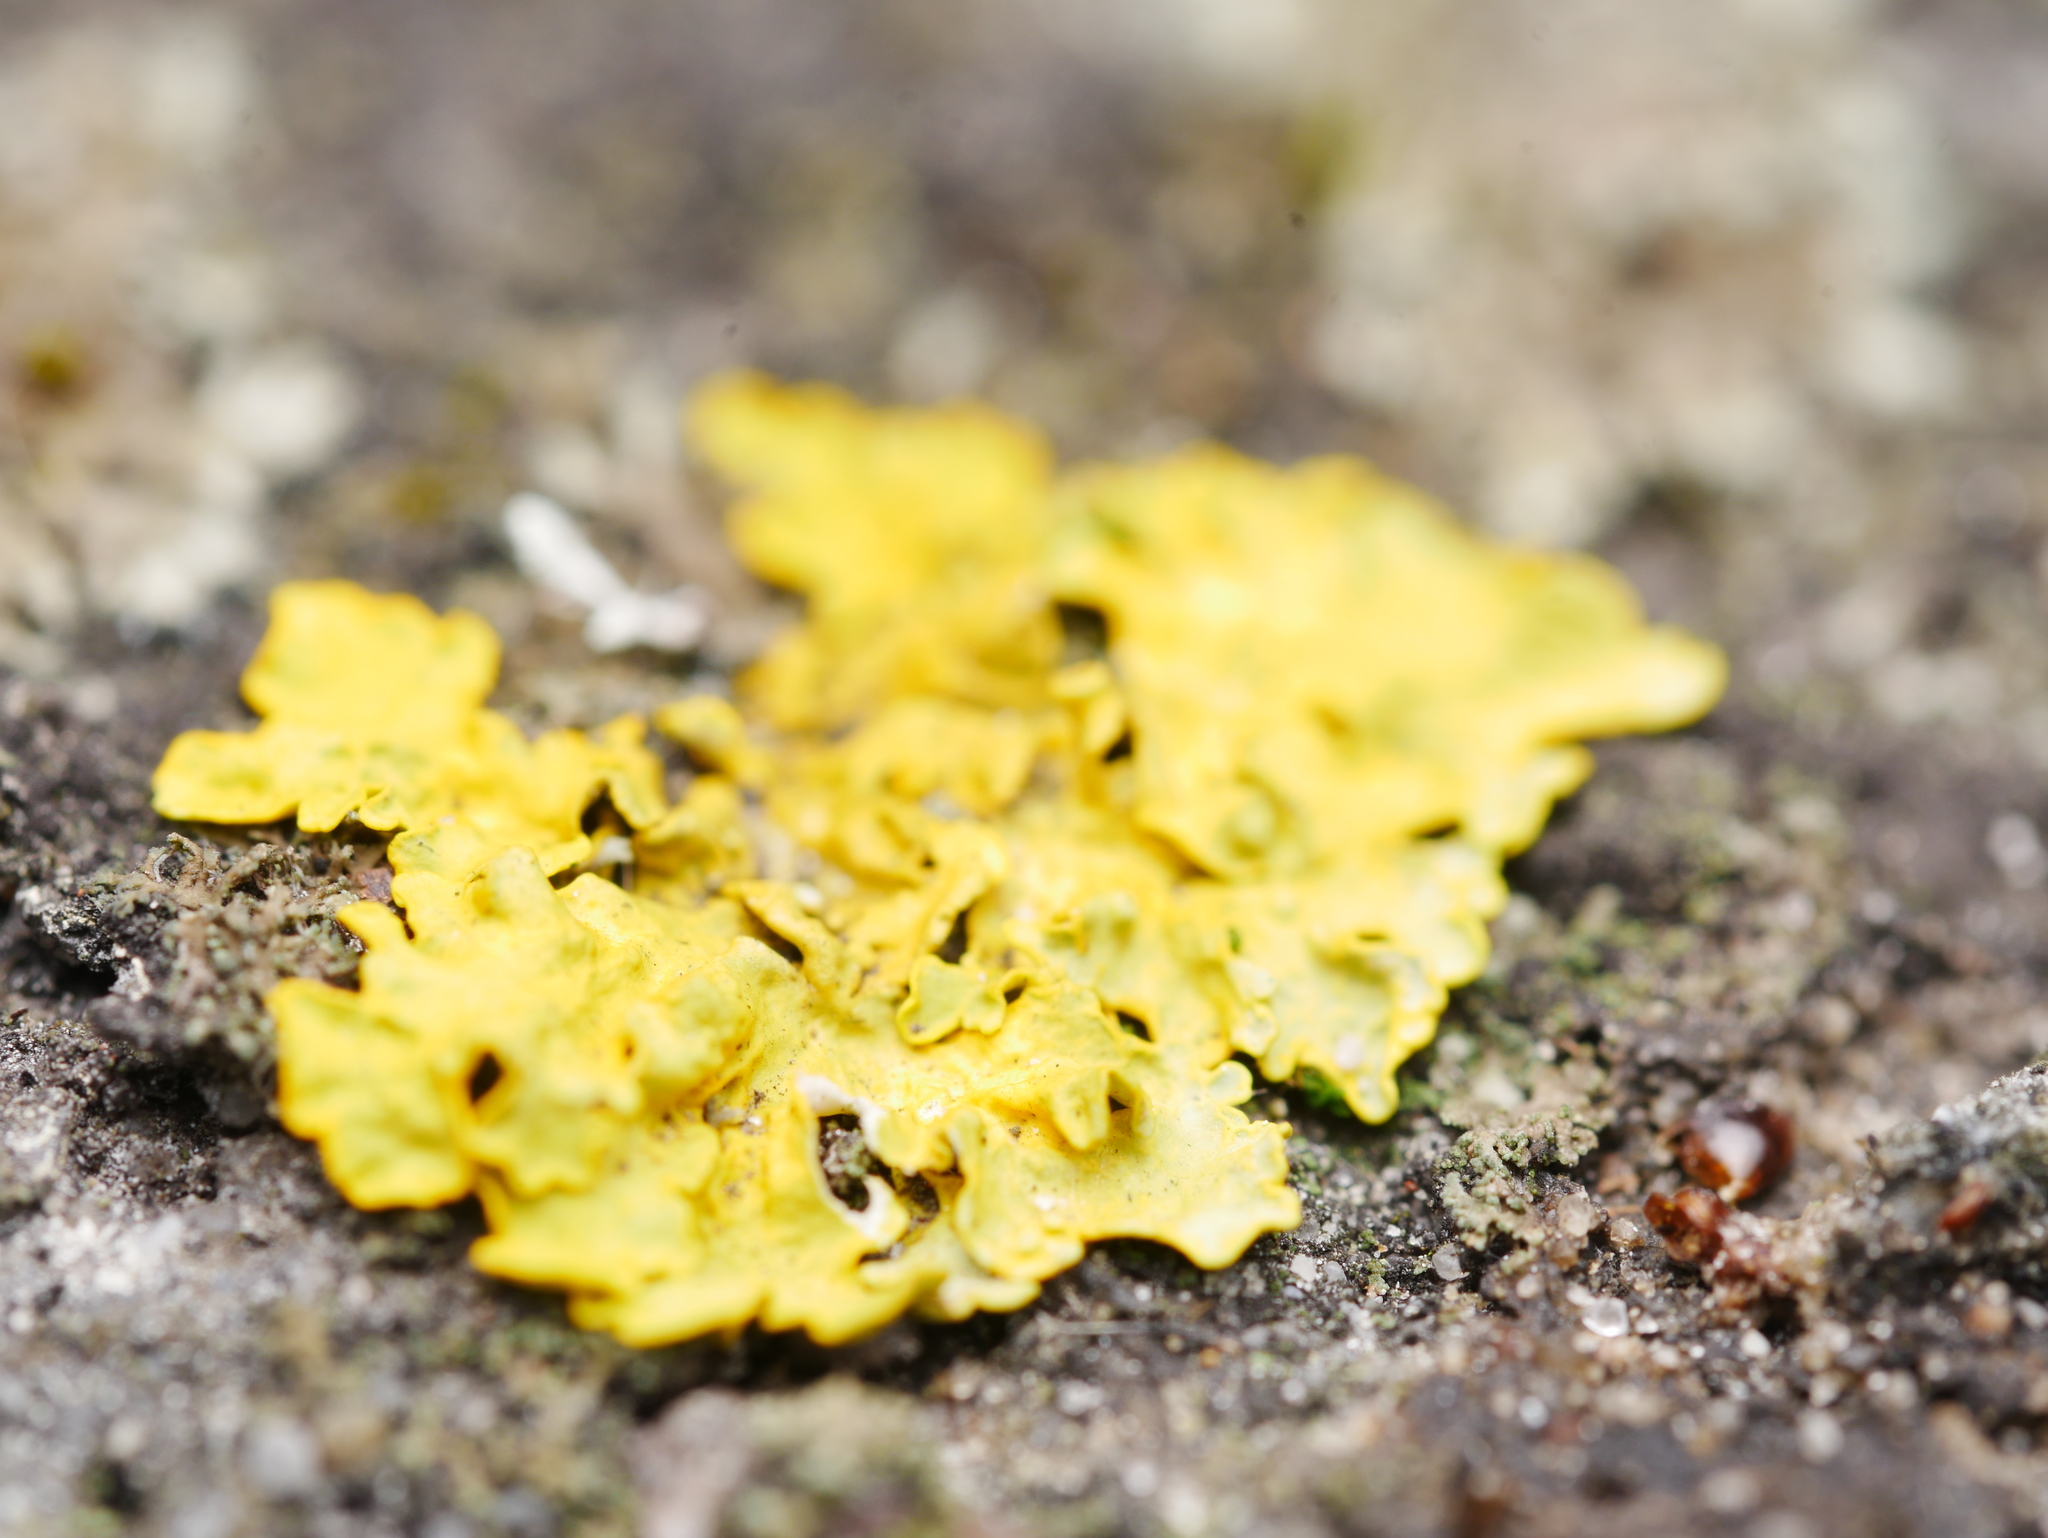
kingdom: Fungi
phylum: Ascomycota
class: Lecanoromycetes
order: Teloschistales
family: Teloschistaceae
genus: Xanthoria
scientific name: Xanthoria parietina
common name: Common orange lichen
